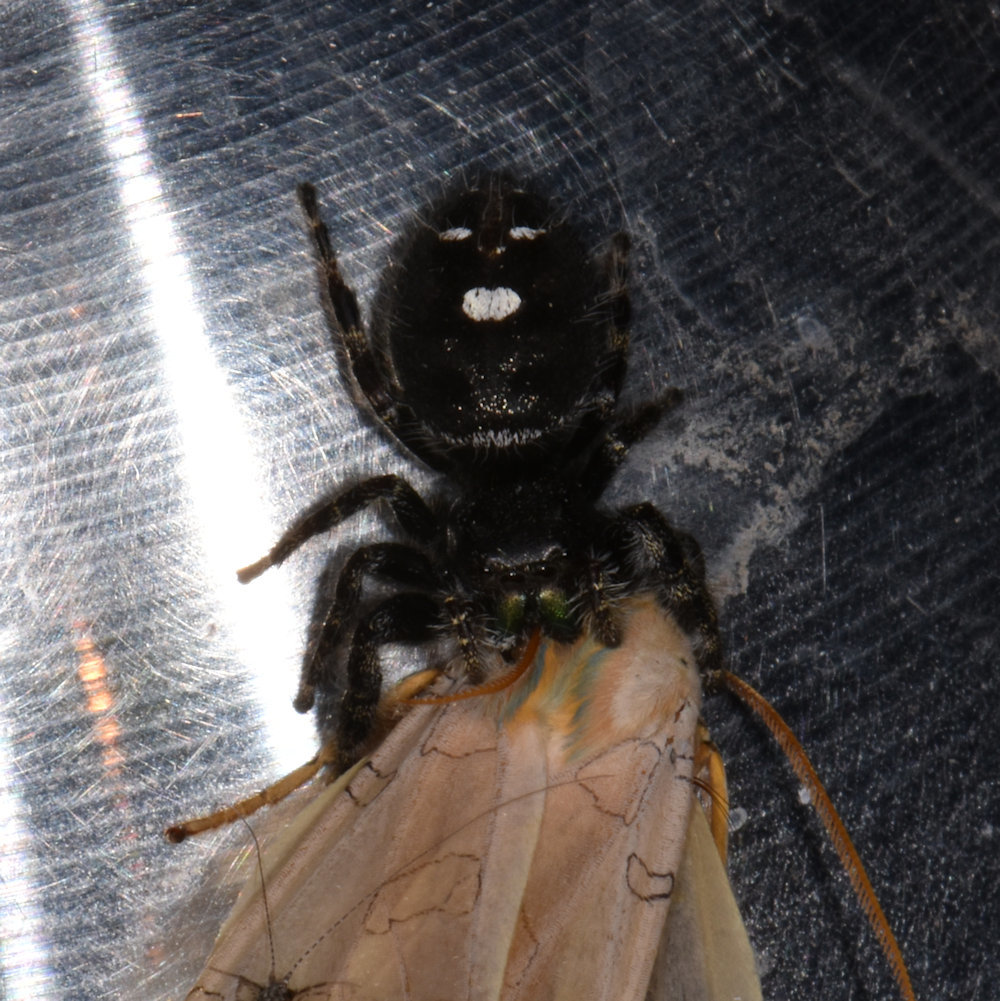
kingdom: Animalia
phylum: Arthropoda
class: Arachnida
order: Araneae
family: Salticidae
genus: Phidippus
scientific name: Phidippus audax
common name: Bold jumper
